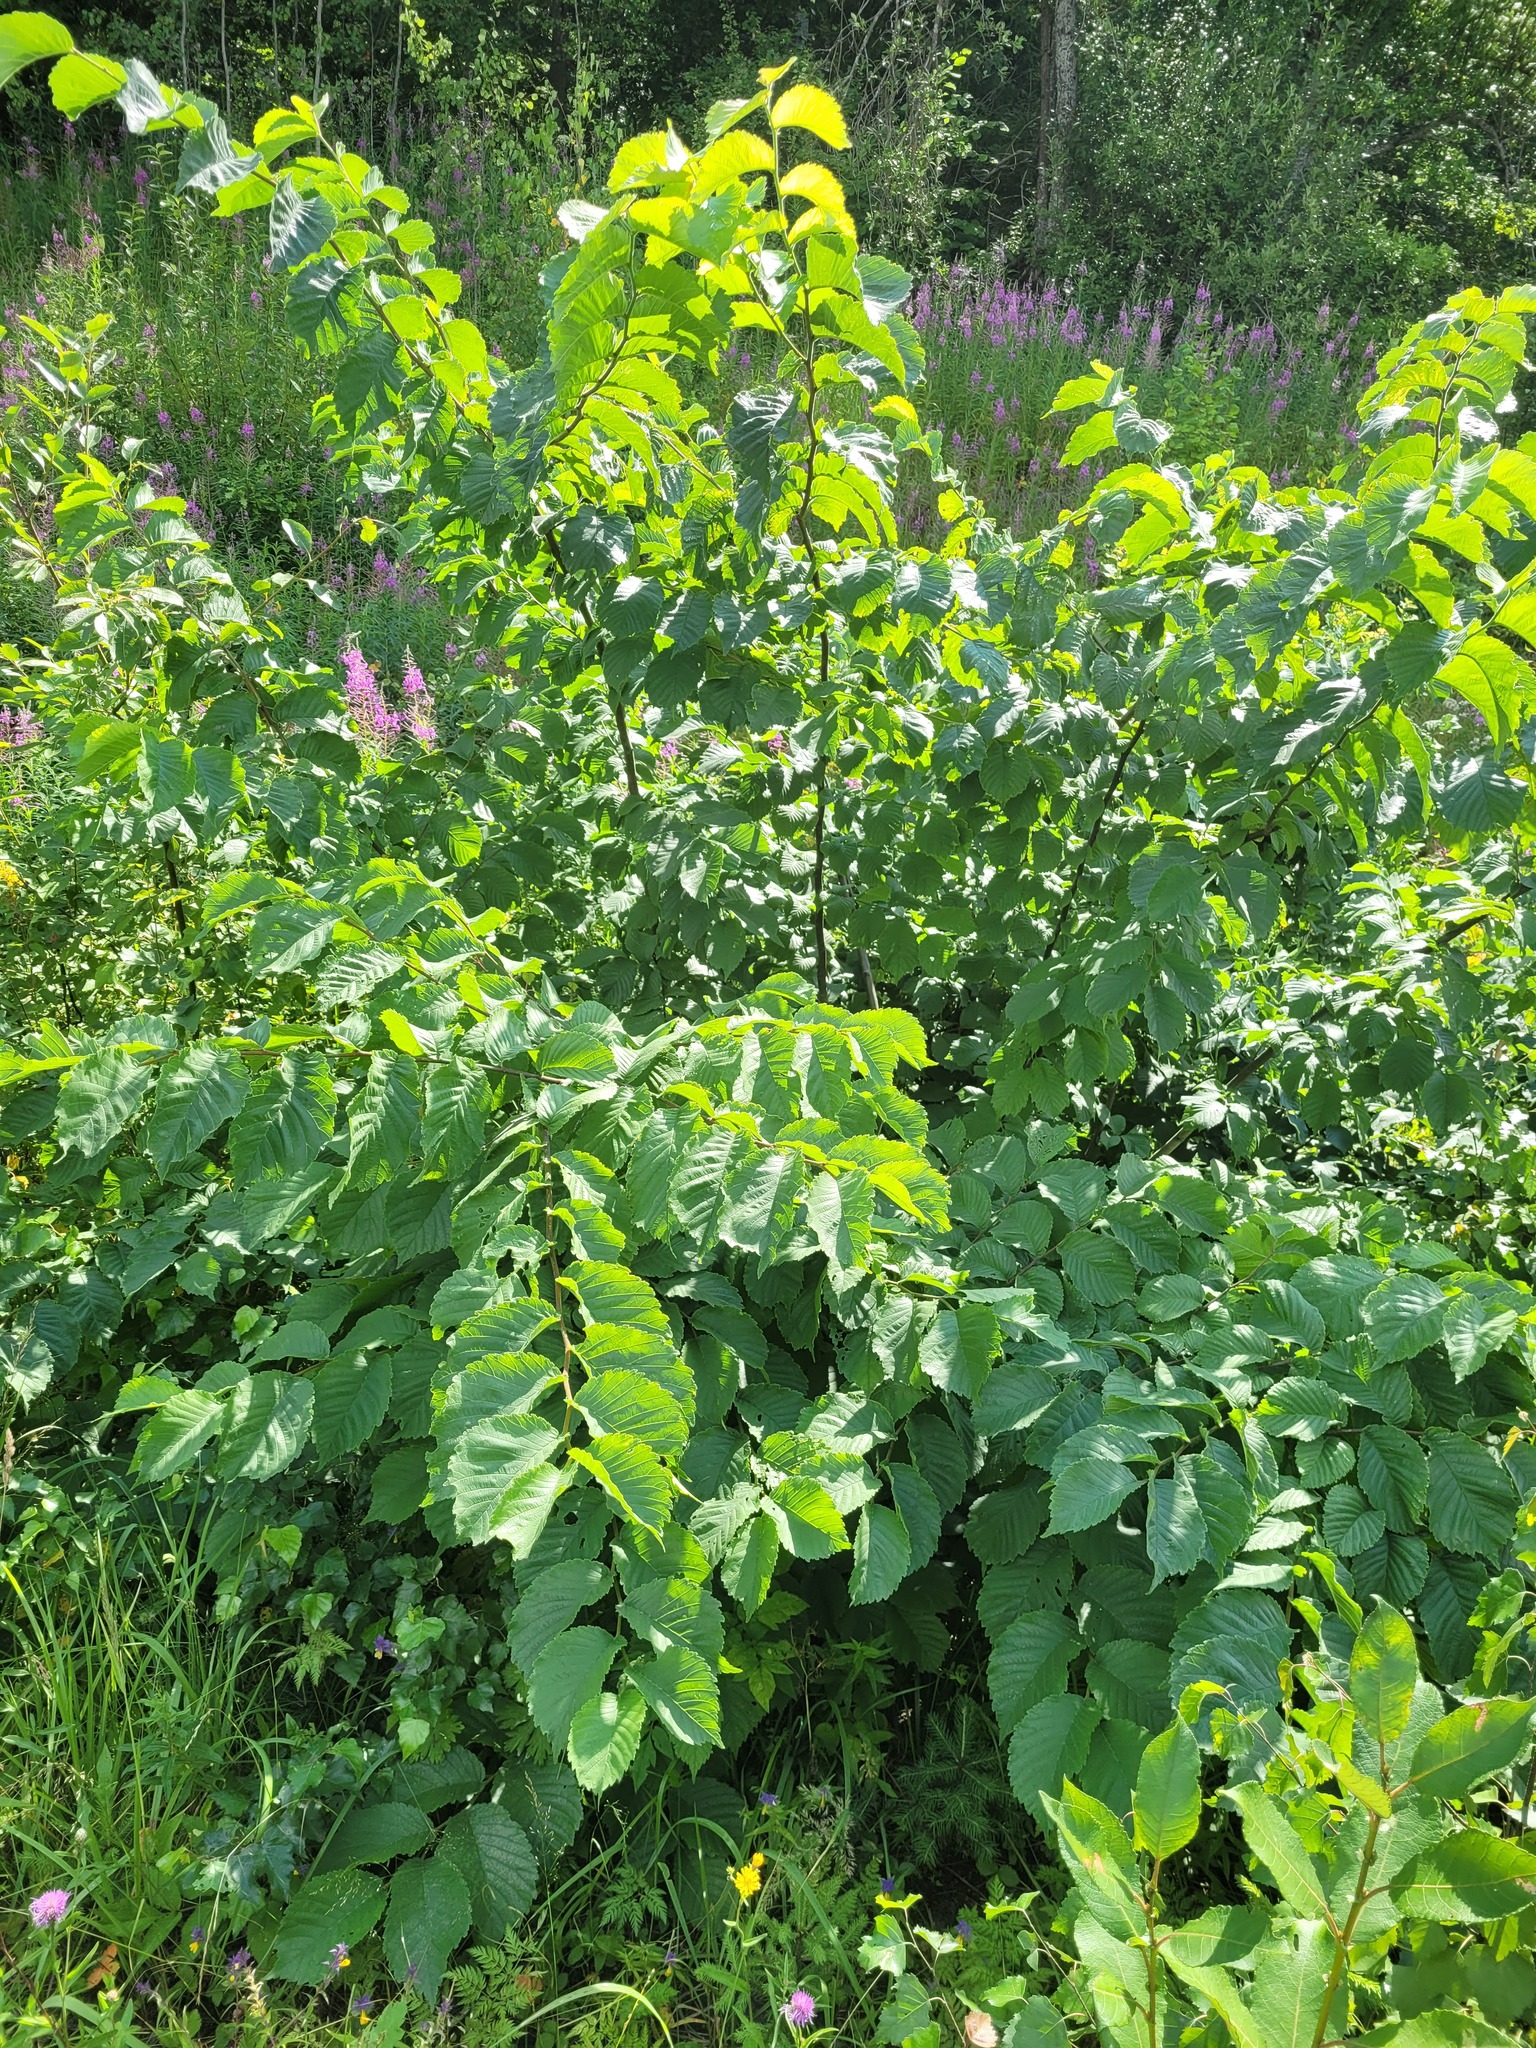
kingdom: Plantae
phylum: Tracheophyta
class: Magnoliopsida
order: Rosales
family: Ulmaceae
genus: Ulmus
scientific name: Ulmus glabra
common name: Wych elm
